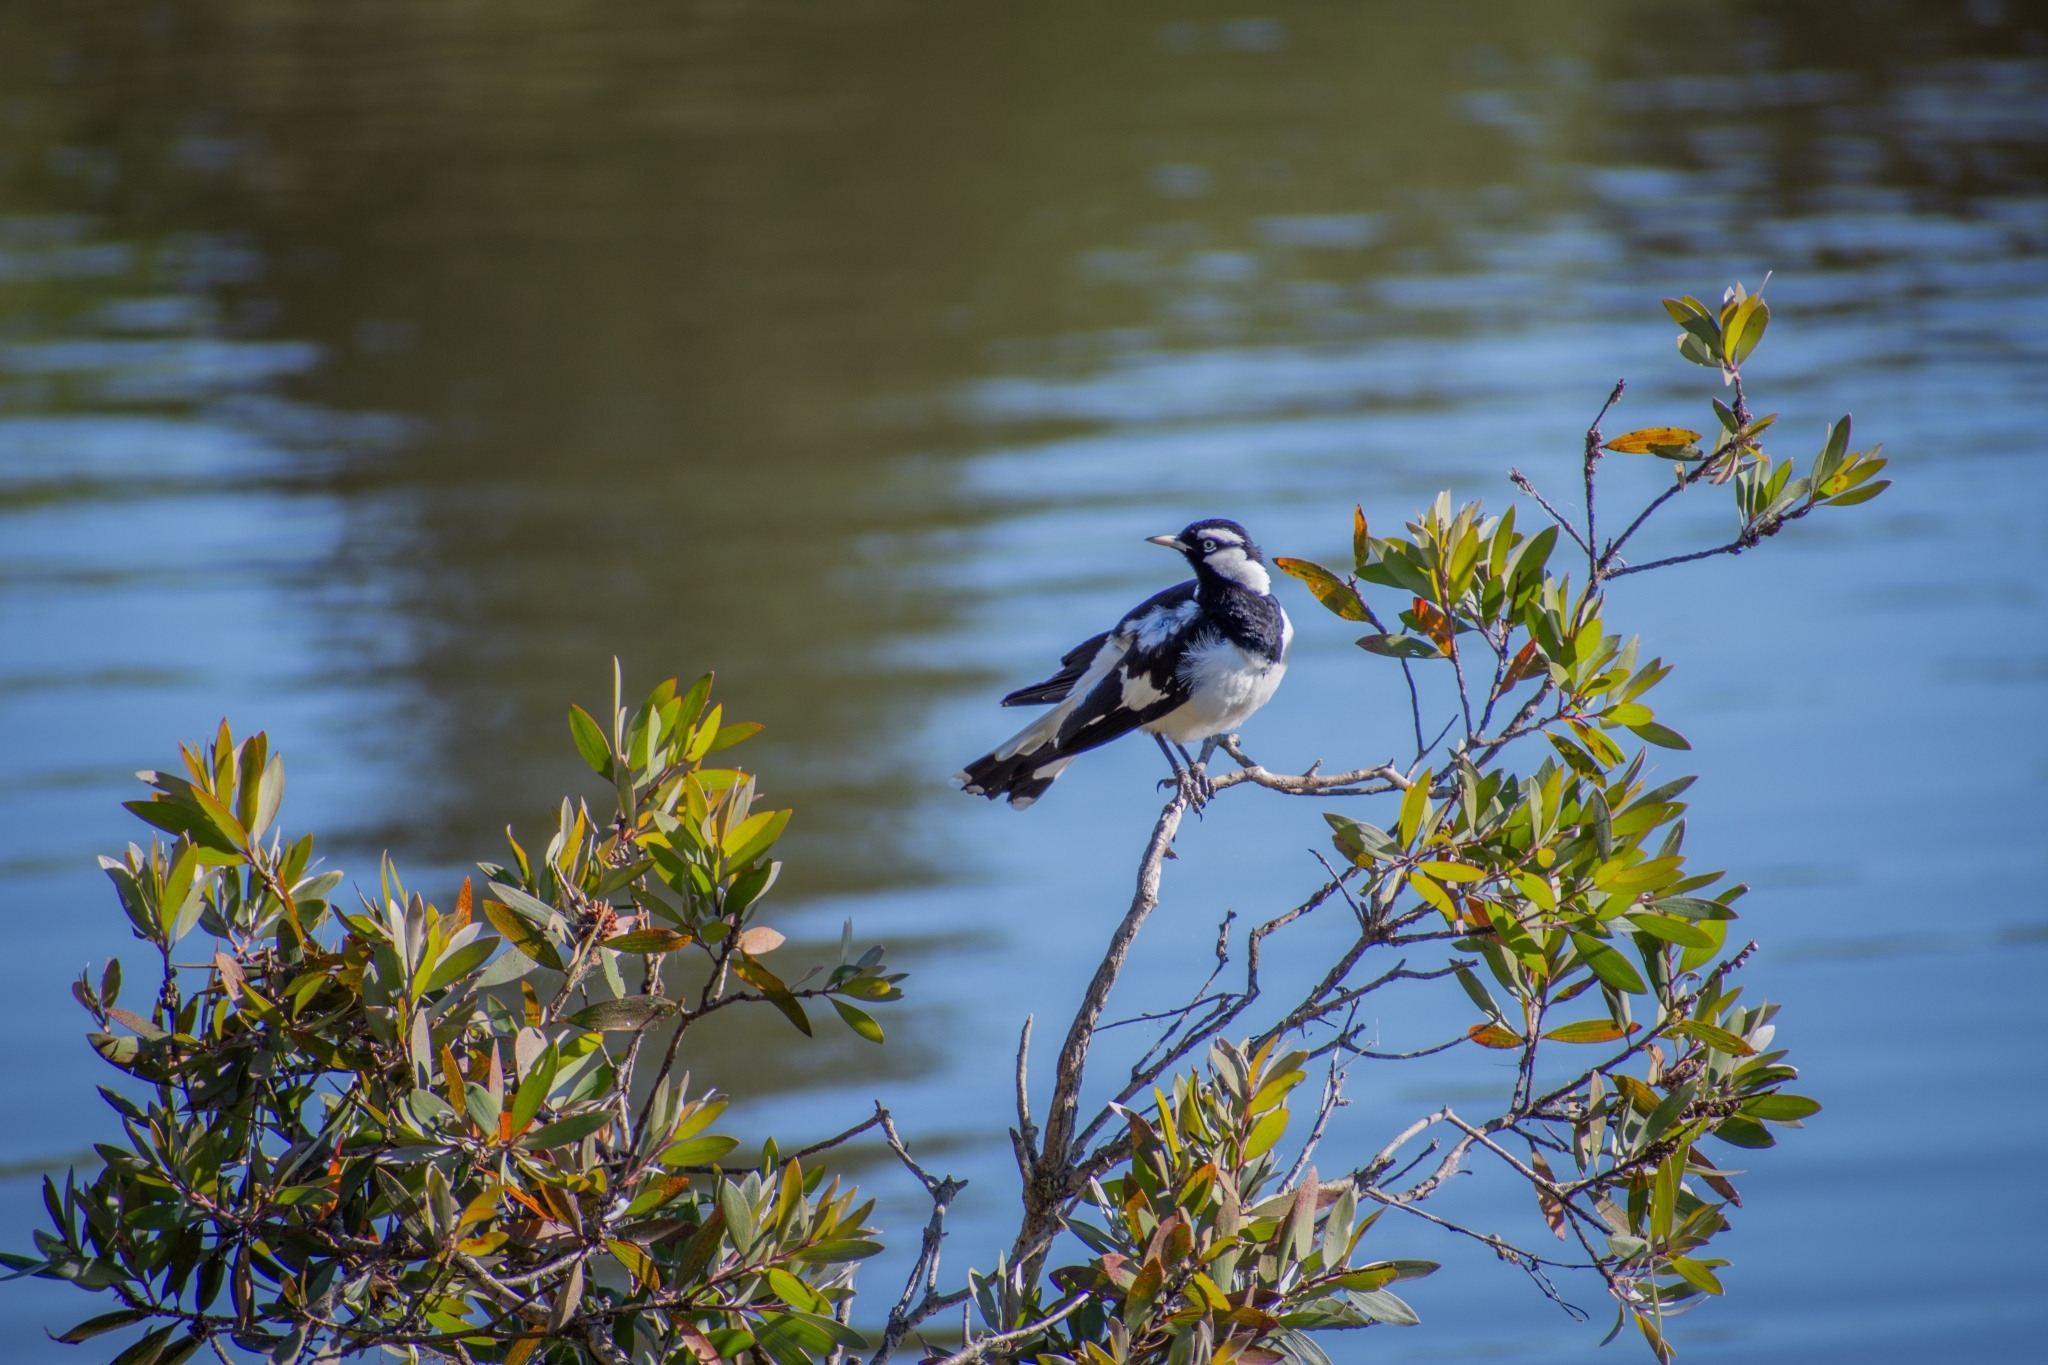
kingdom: Animalia
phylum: Chordata
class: Aves
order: Passeriformes
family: Monarchidae
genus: Grallina
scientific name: Grallina cyanoleuca
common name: Magpie-lark
